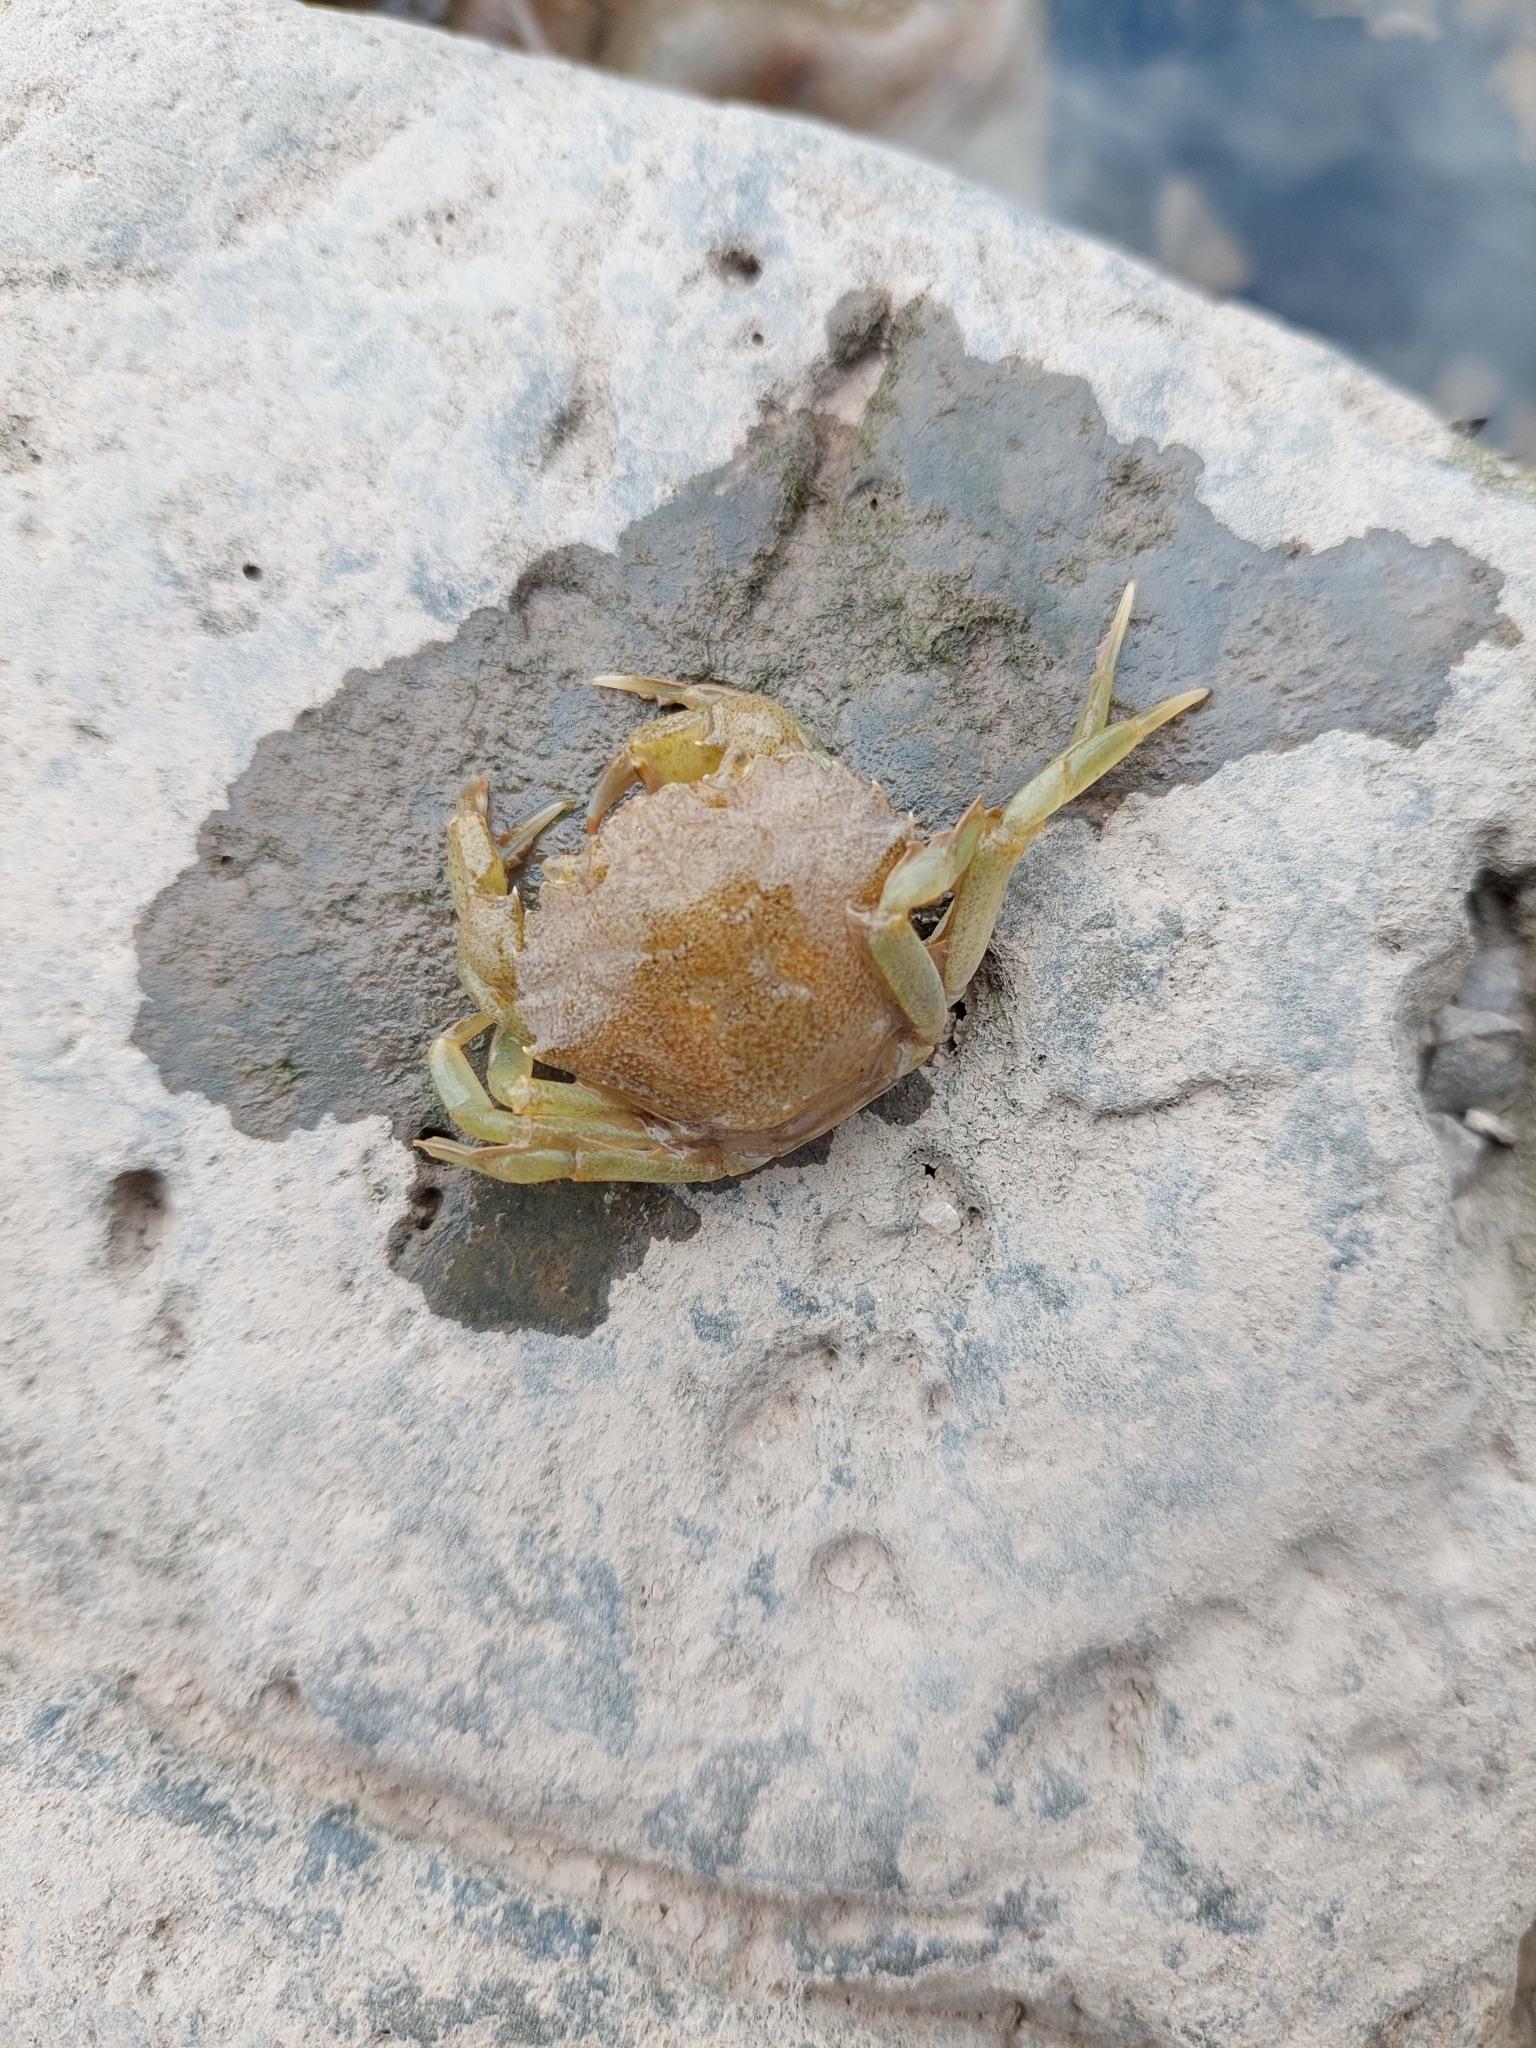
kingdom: Animalia
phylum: Arthropoda
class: Malacostraca
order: Decapoda
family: Carcinidae
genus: Carcinus
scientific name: Carcinus maenas
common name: European green crab
